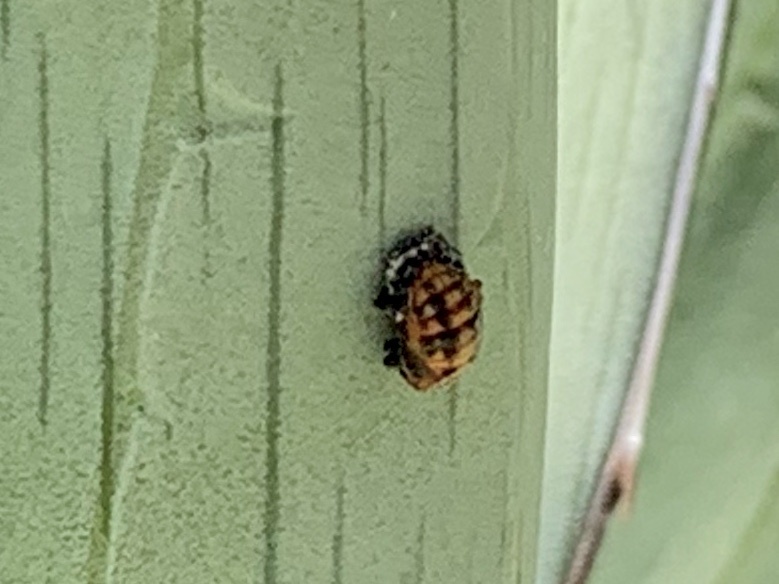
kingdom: Animalia
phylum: Arthropoda
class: Insecta
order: Coleoptera
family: Coccinellidae
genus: Harmonia
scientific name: Harmonia axyridis
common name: Harlequin ladybird
